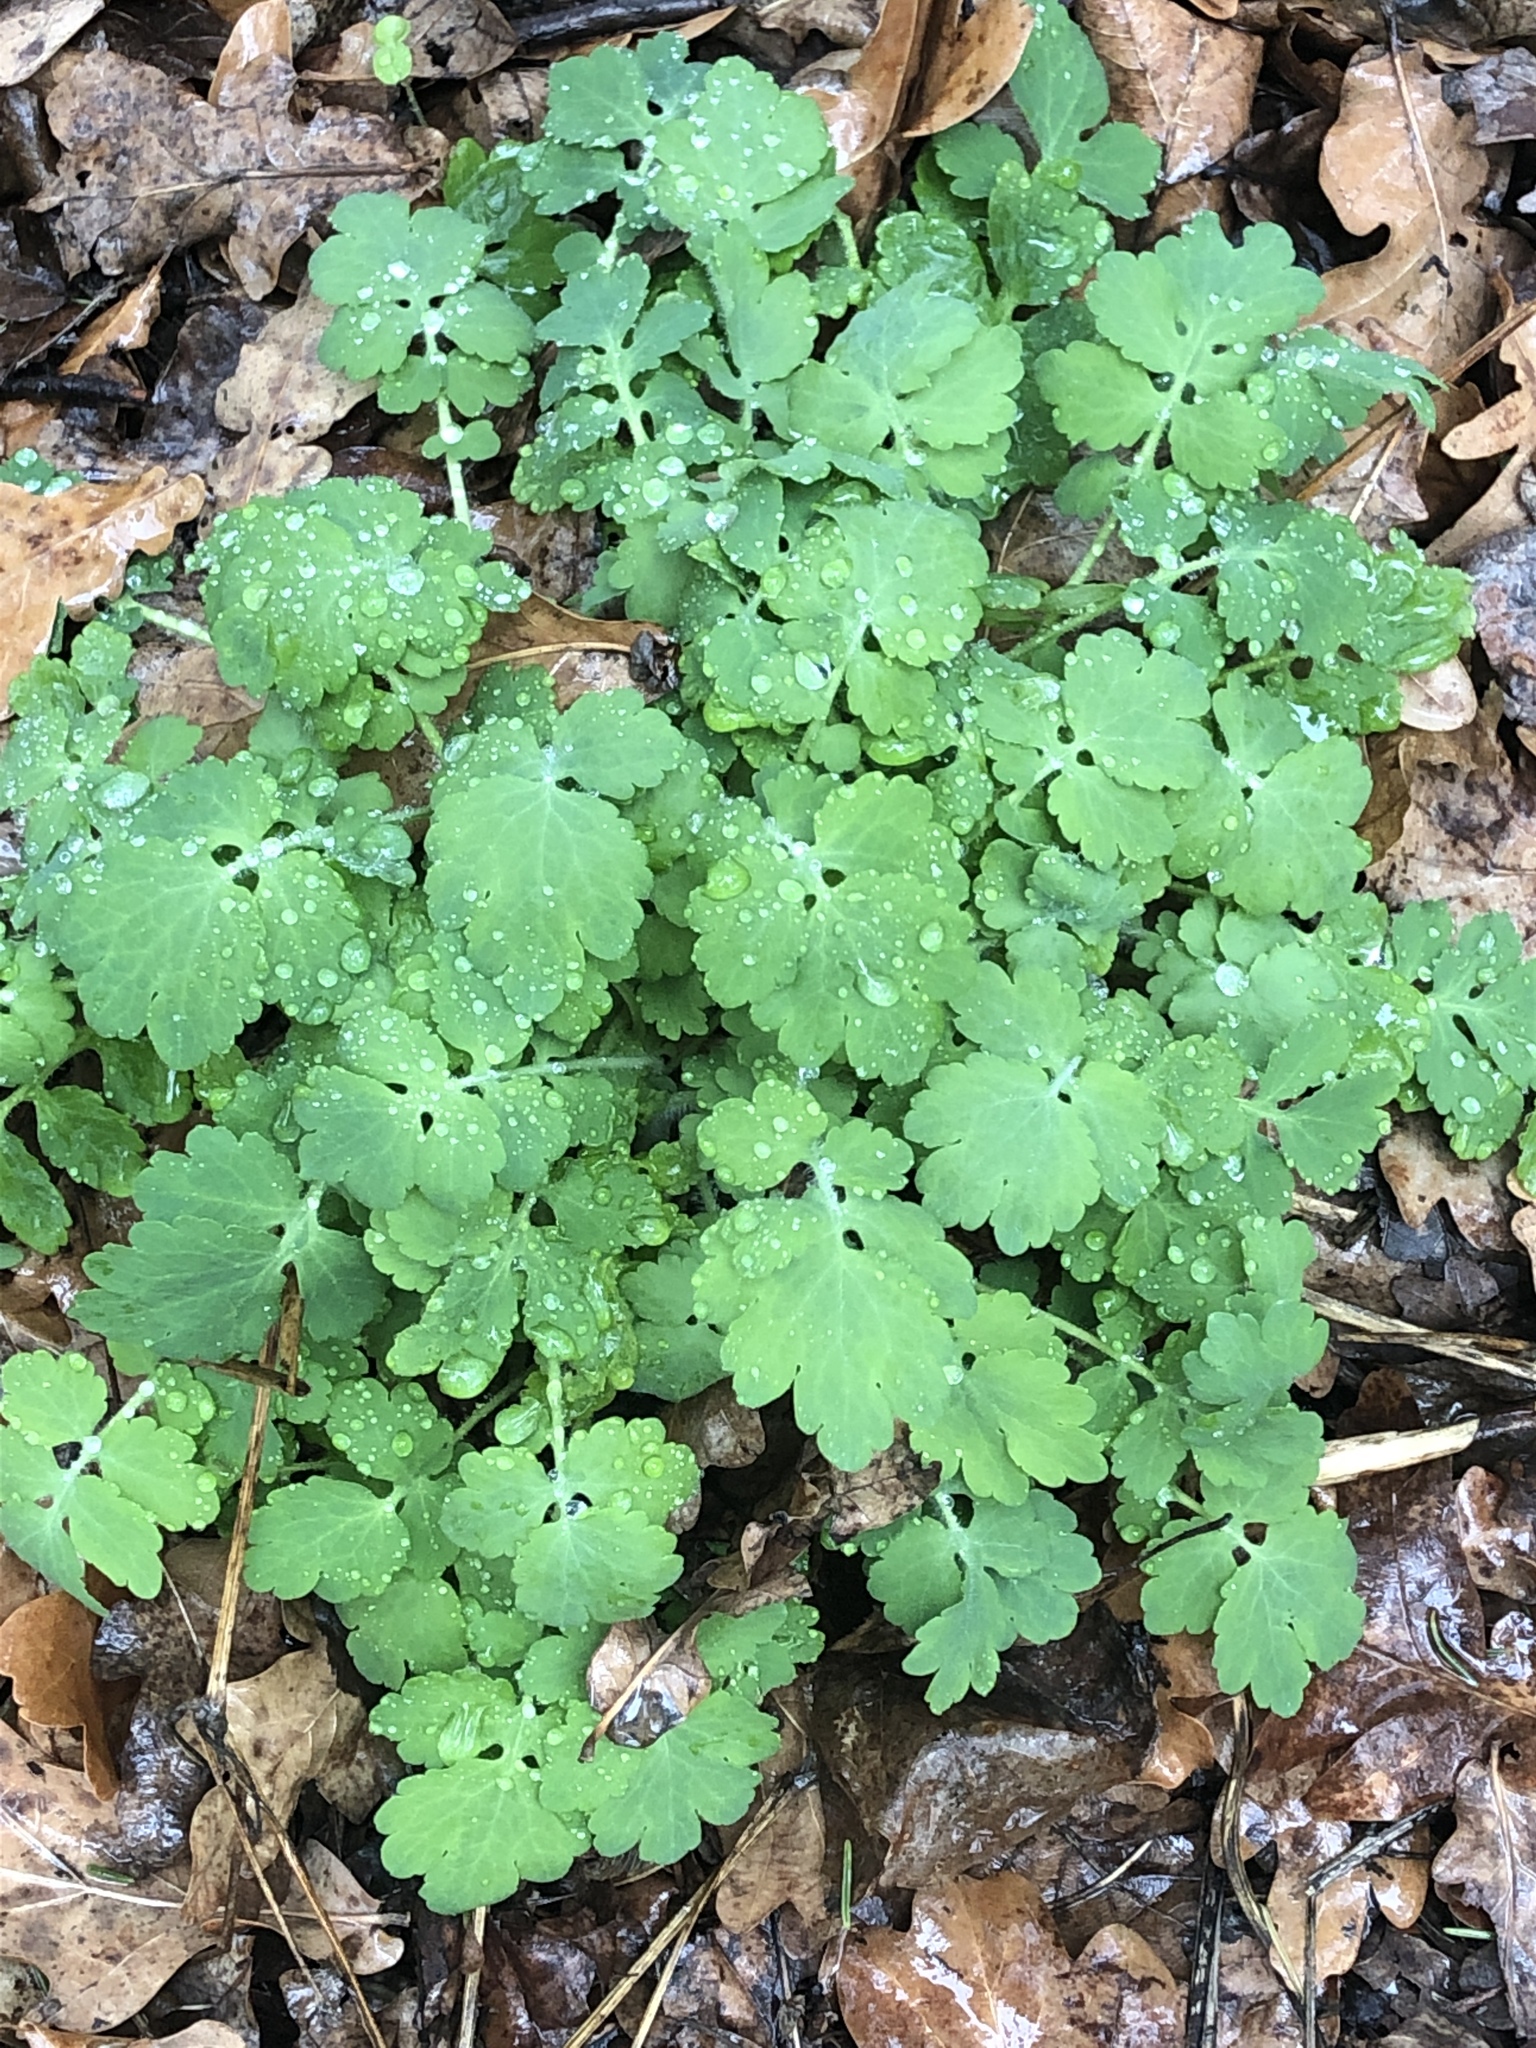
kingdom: Plantae
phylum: Tracheophyta
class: Magnoliopsida
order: Ranunculales
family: Papaveraceae
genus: Chelidonium
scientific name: Chelidonium majus
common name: Greater celandine
